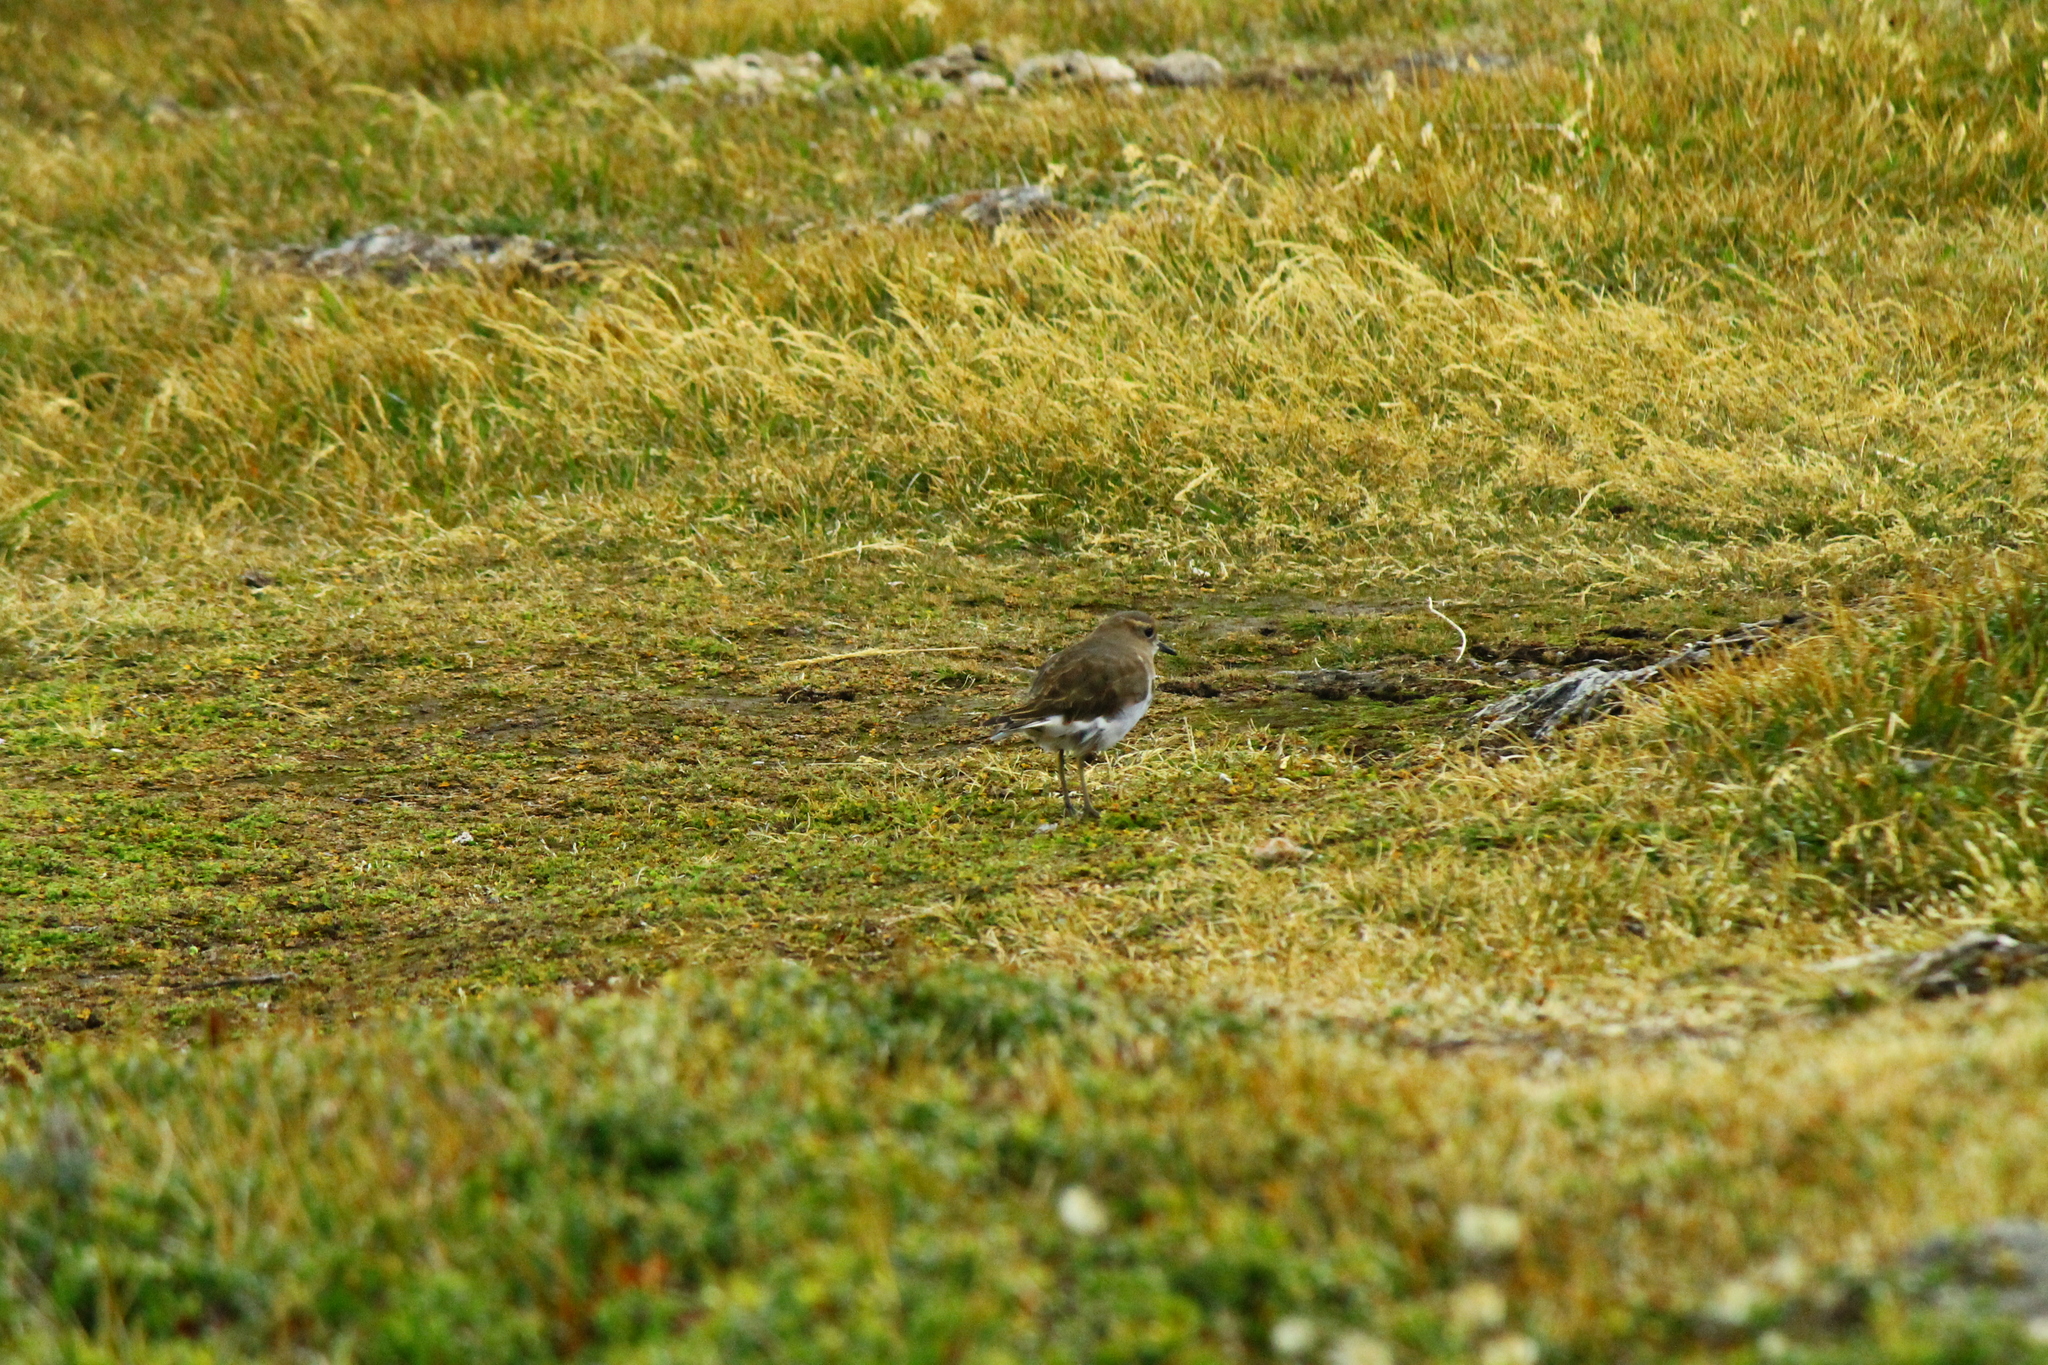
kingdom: Animalia
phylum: Chordata
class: Aves
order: Charadriiformes
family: Charadriidae
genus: Charadrius
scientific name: Charadrius modestus
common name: Rufous-chested plover
